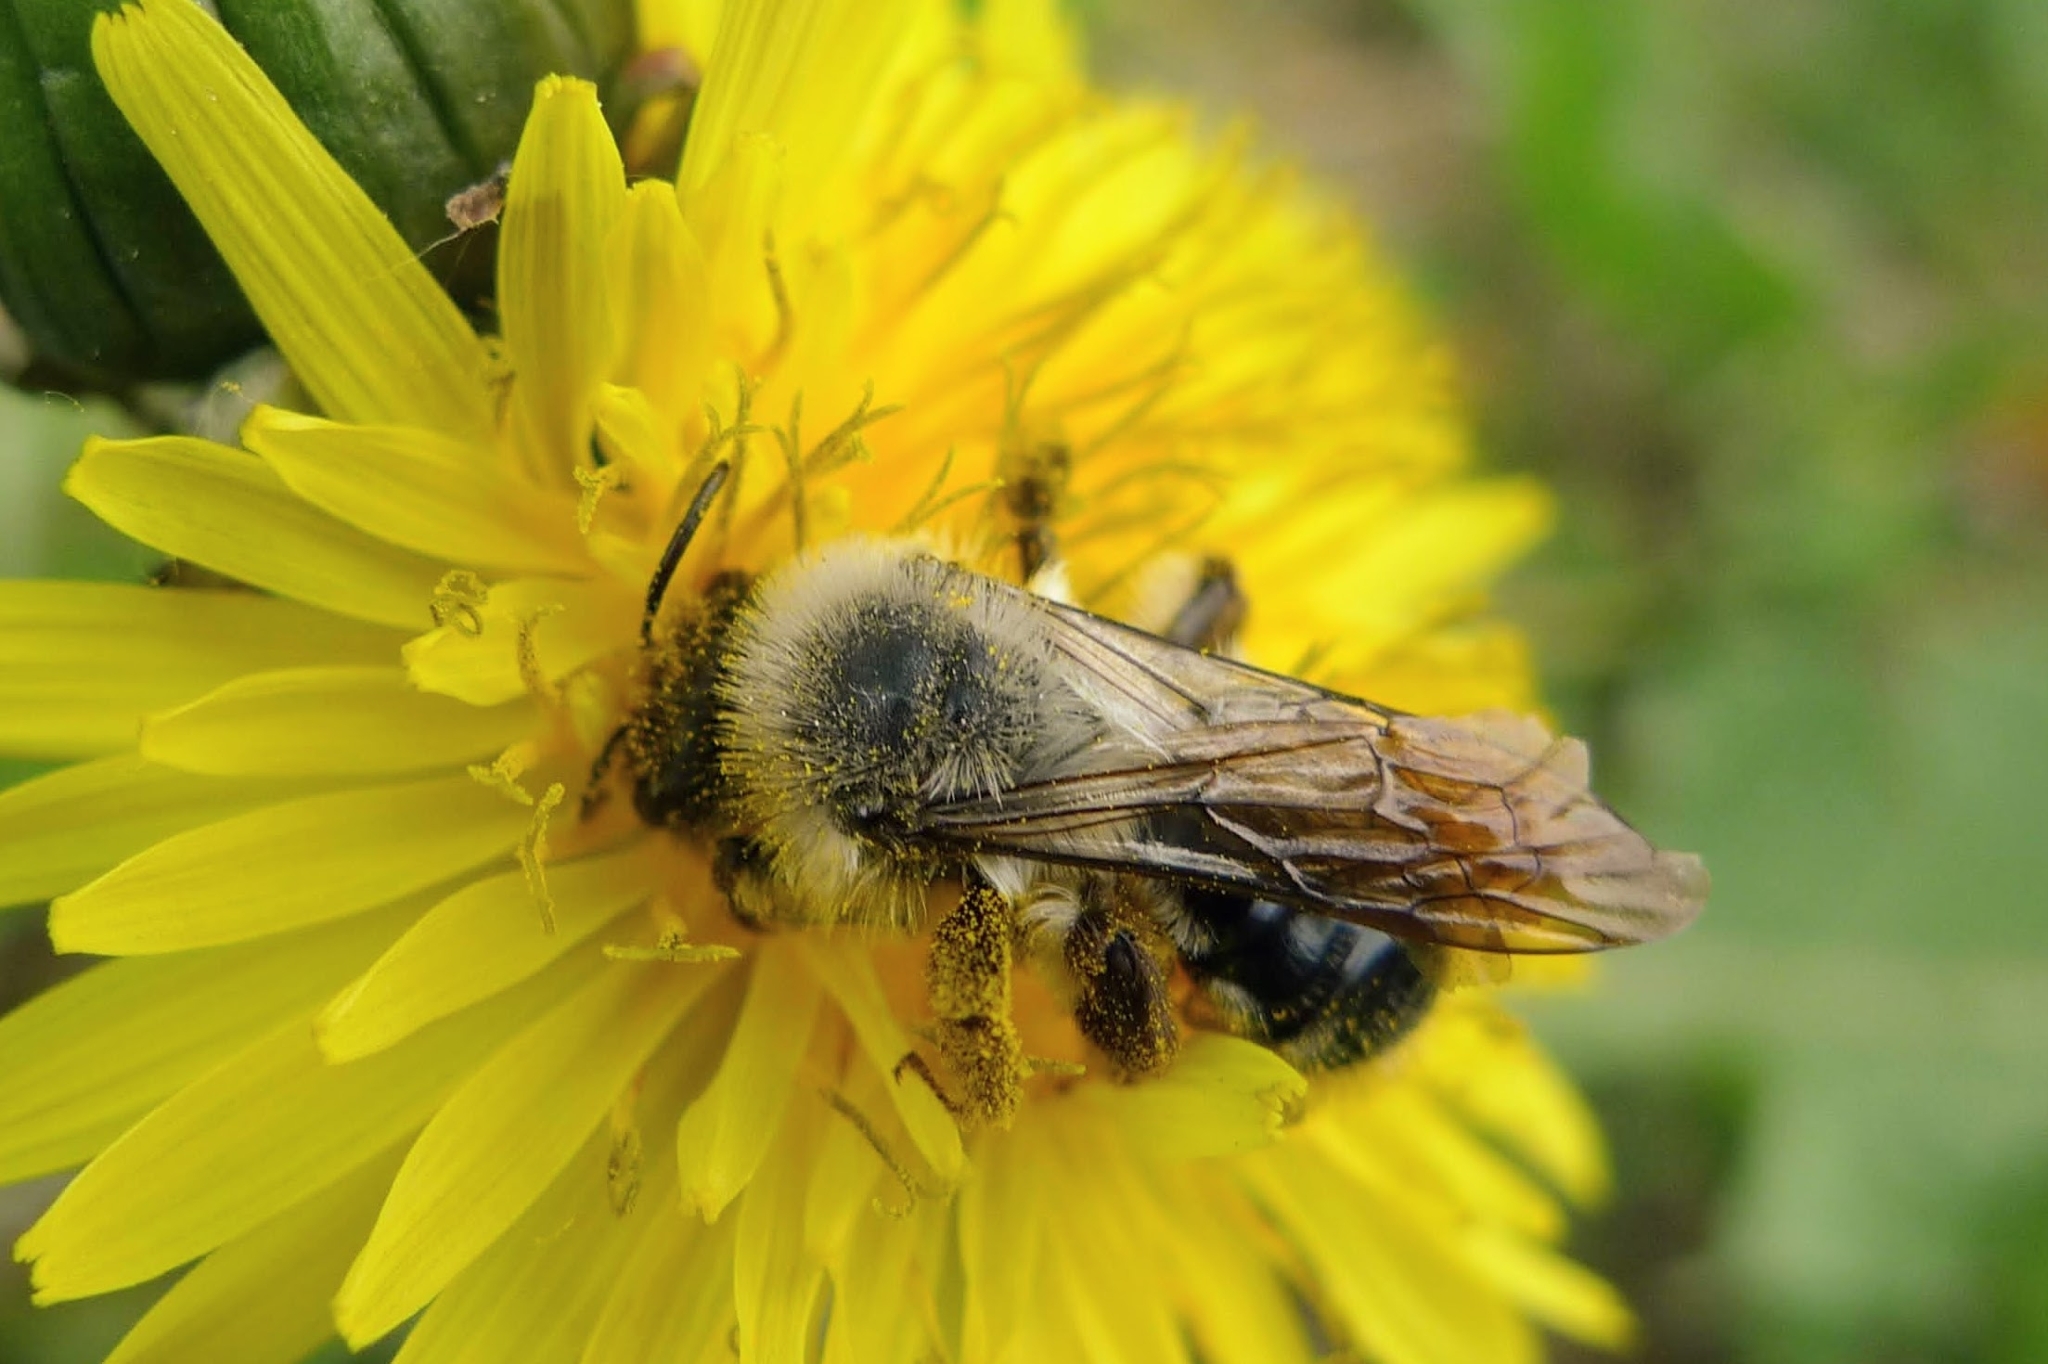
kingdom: Animalia
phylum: Arthropoda
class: Insecta
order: Hymenoptera
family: Andrenidae
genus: Andrena
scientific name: Andrena vaga
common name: Grey-backed mining bee
